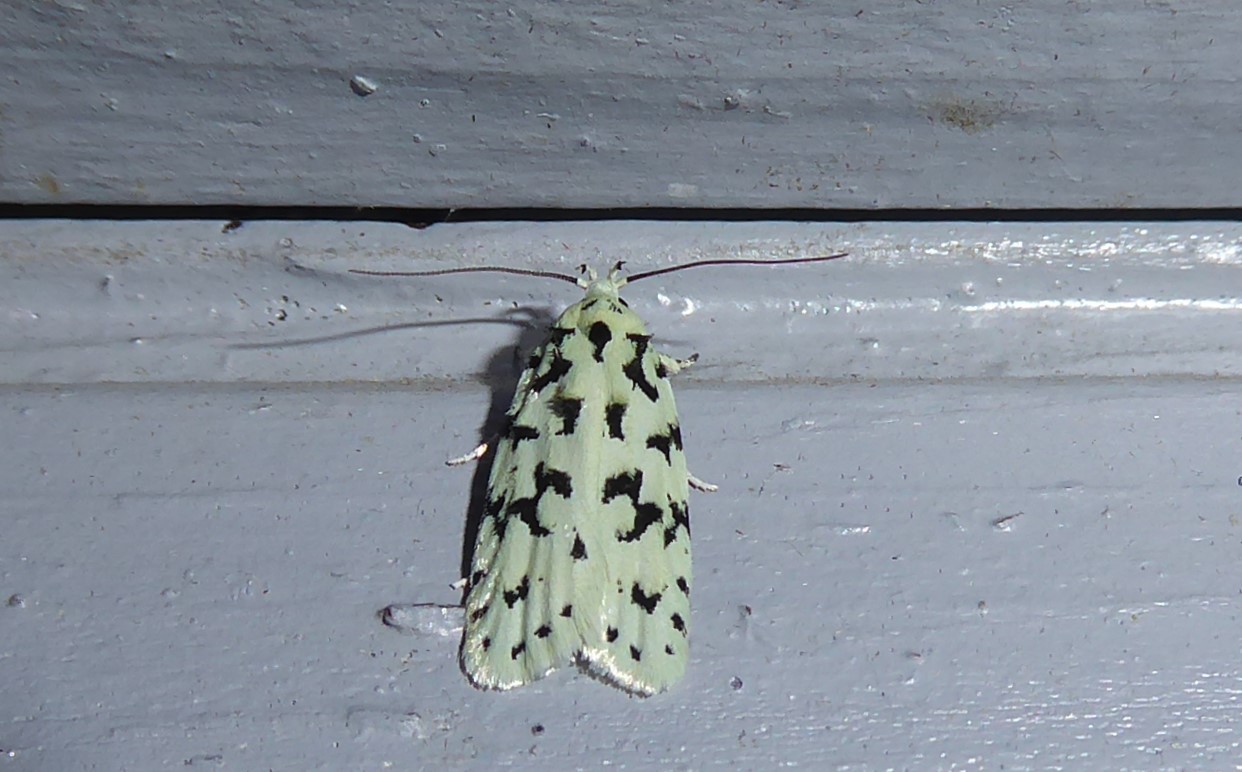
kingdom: Animalia
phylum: Arthropoda
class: Insecta
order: Lepidoptera
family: Oecophoridae
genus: Izatha
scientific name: Izatha huttoni
